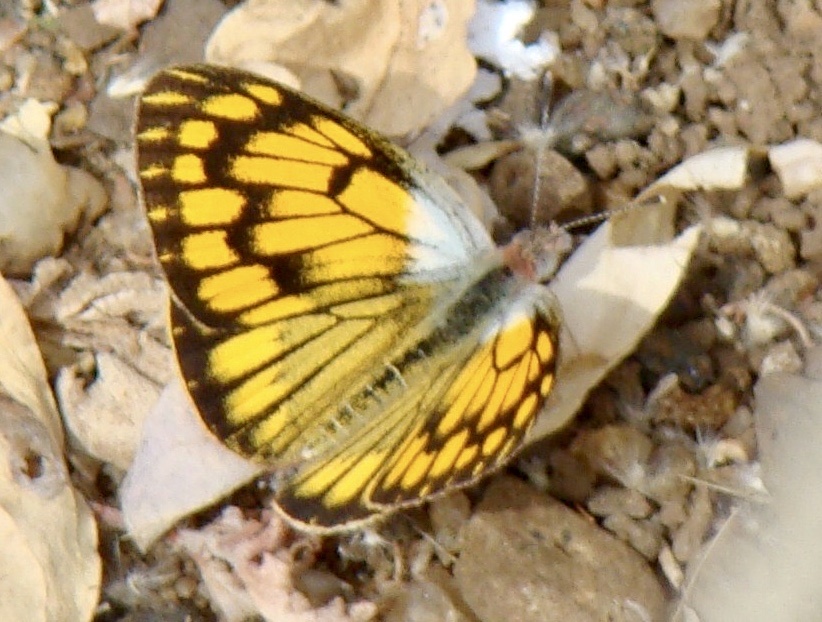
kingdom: Animalia
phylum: Arthropoda
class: Insecta
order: Lepidoptera
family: Pieridae
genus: Colotis
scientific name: Colotis aurigineus
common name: African golden arab
